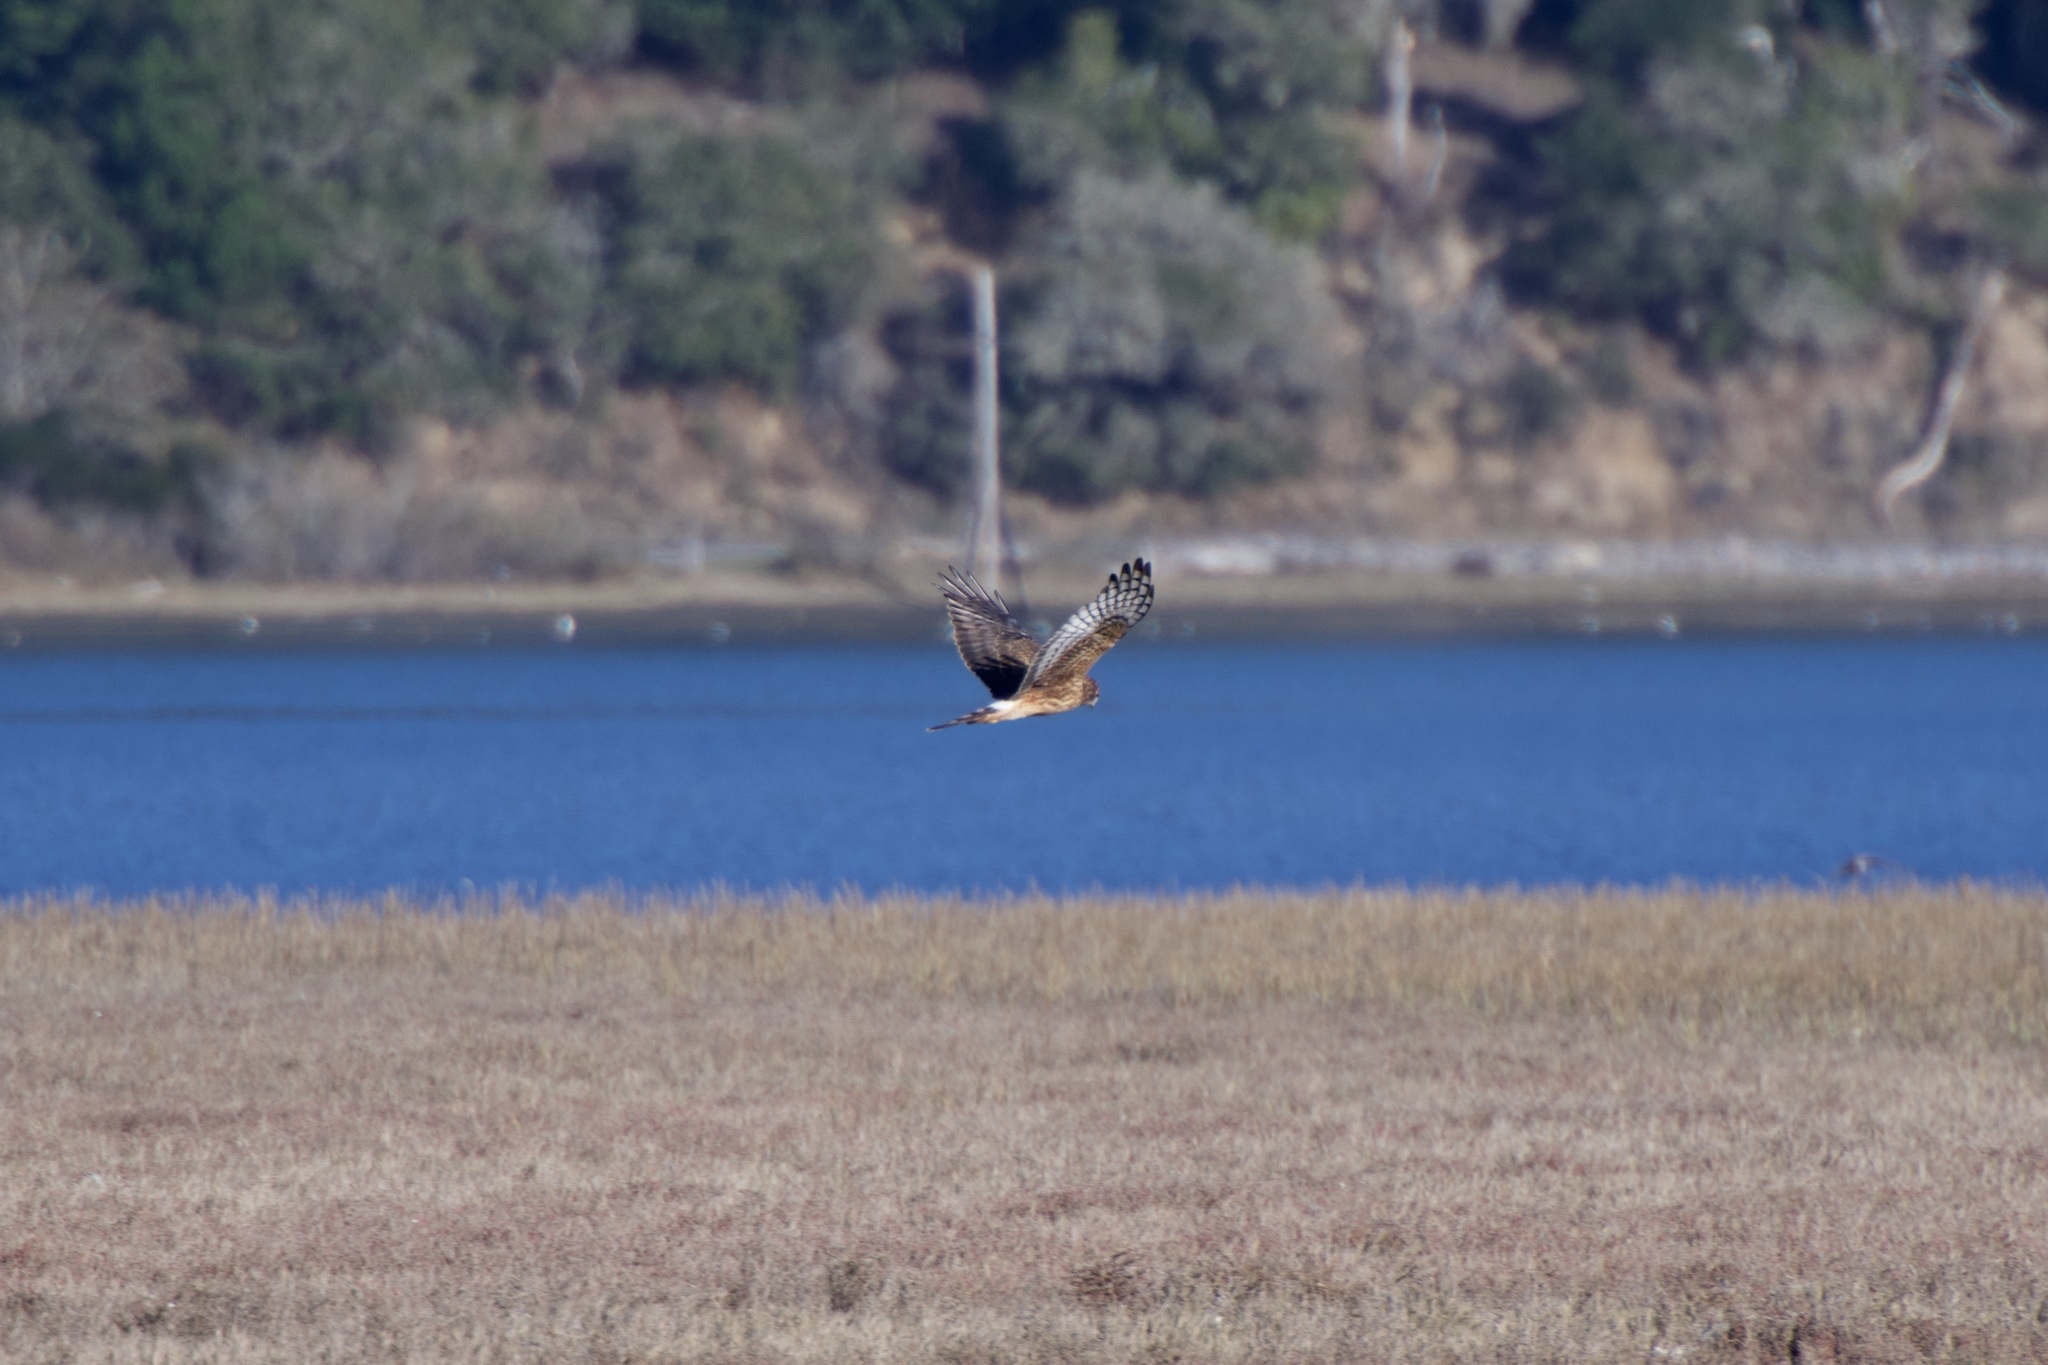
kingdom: Animalia
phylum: Chordata
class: Aves
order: Accipitriformes
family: Accipitridae
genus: Circus
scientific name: Circus cyaneus
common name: Hen harrier
